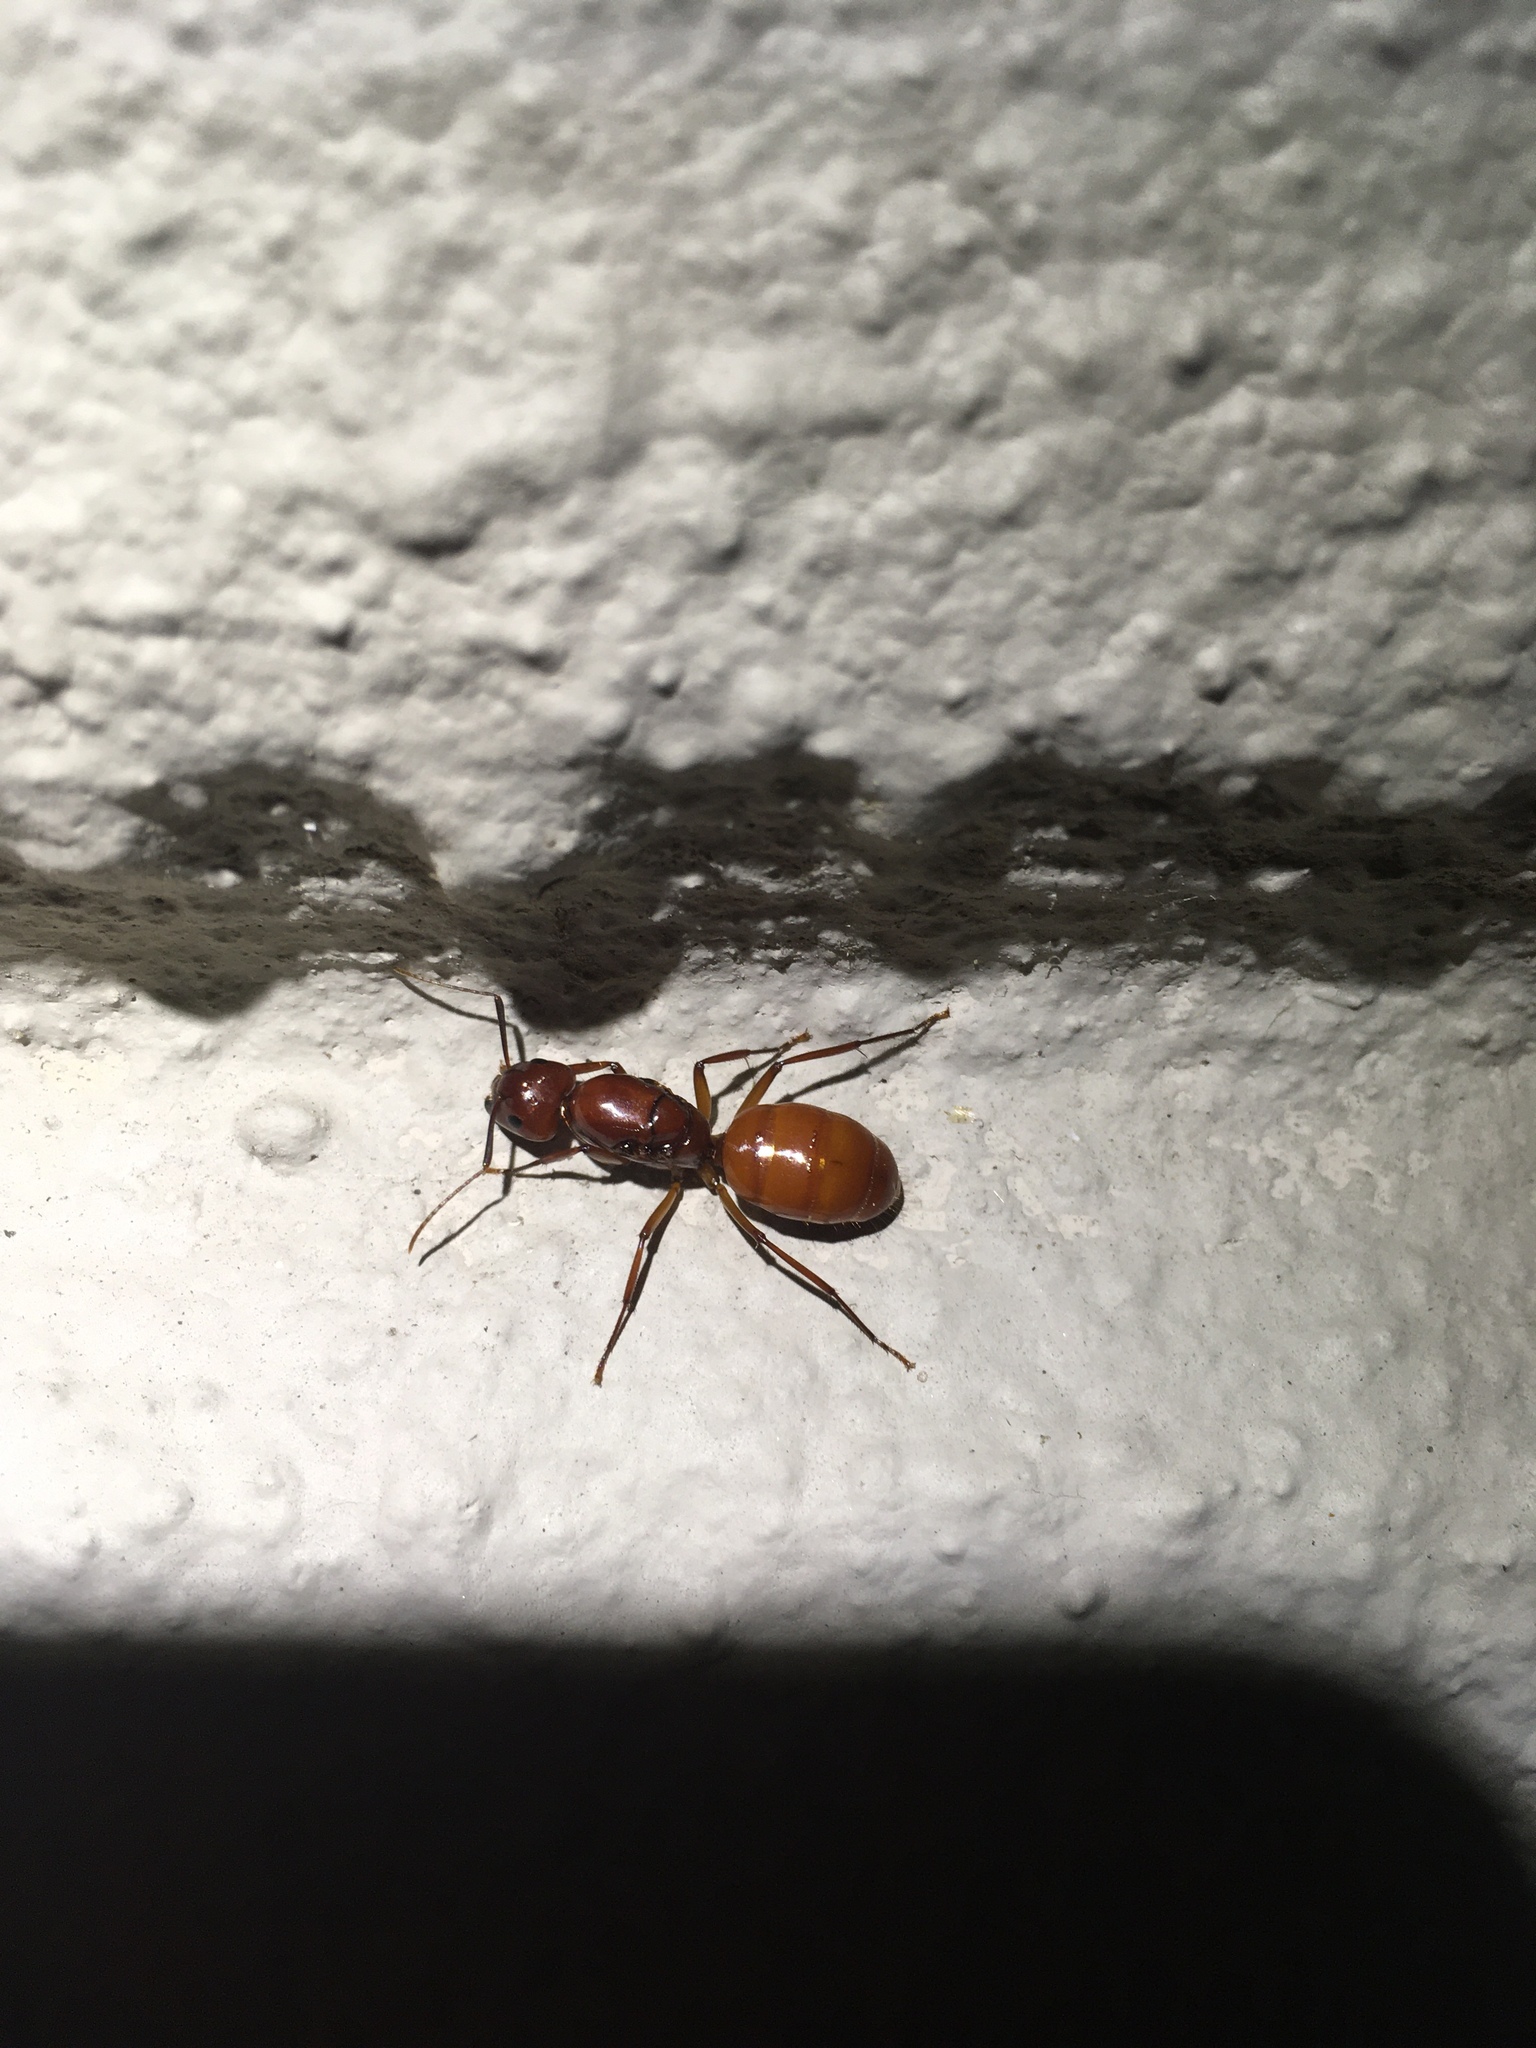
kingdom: Animalia
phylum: Arthropoda
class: Insecta
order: Hymenoptera
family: Formicidae
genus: Camponotus
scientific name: Camponotus castaneus
